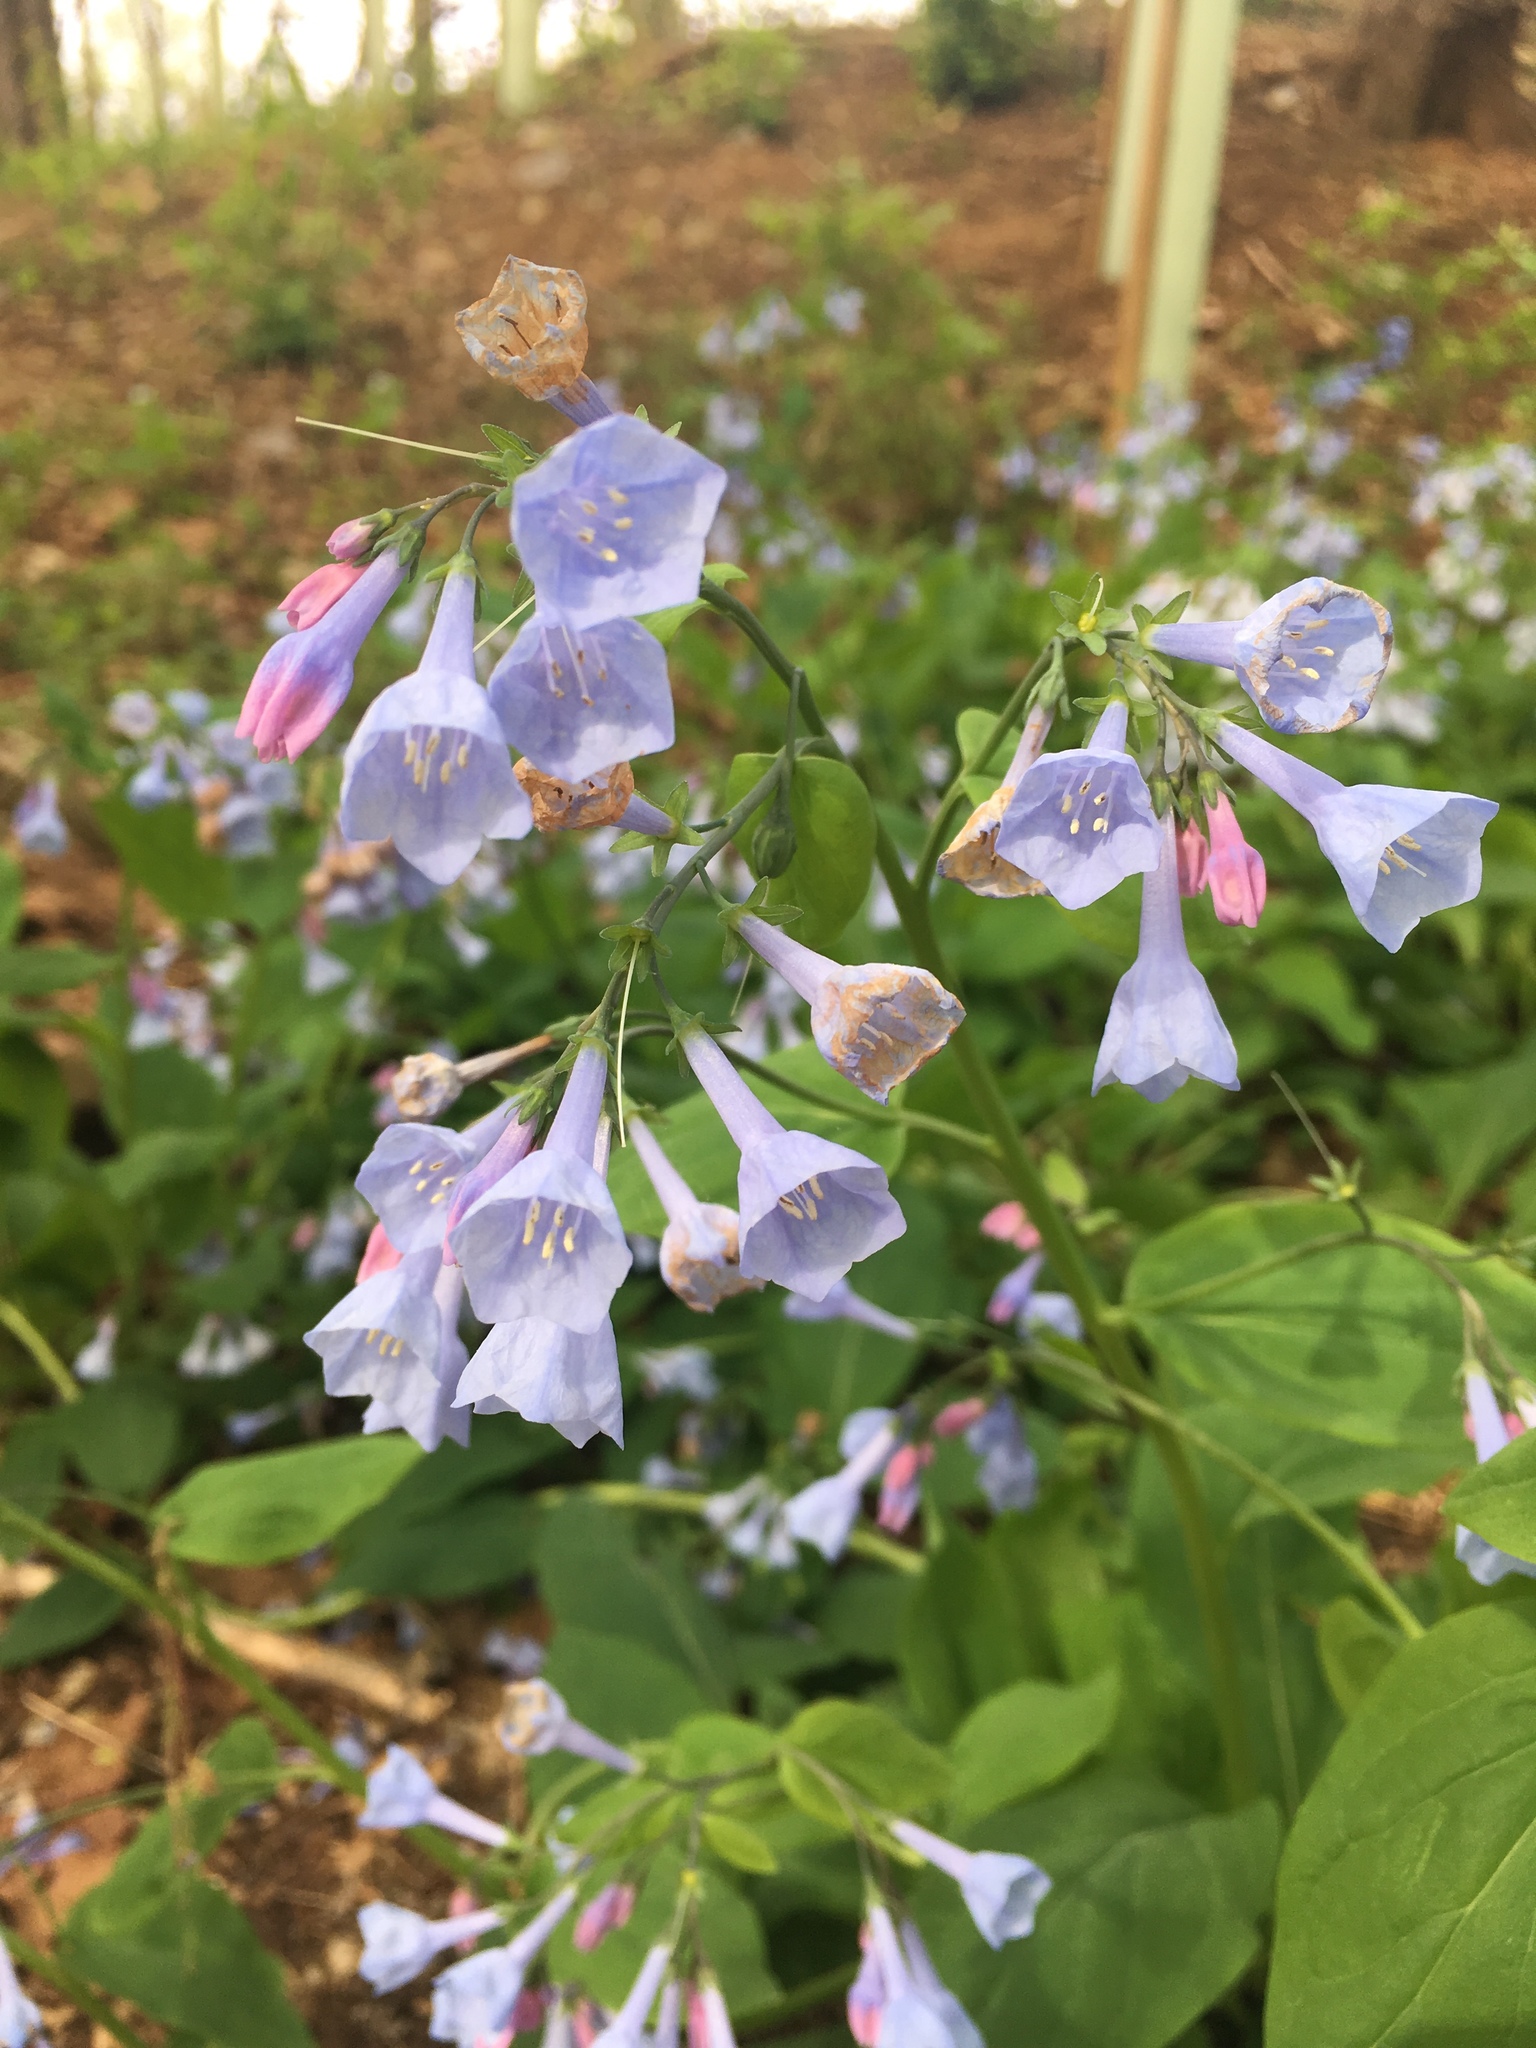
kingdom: Plantae
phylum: Tracheophyta
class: Magnoliopsida
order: Boraginales
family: Boraginaceae
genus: Mertensia
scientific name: Mertensia virginica
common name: Virginia bluebells
